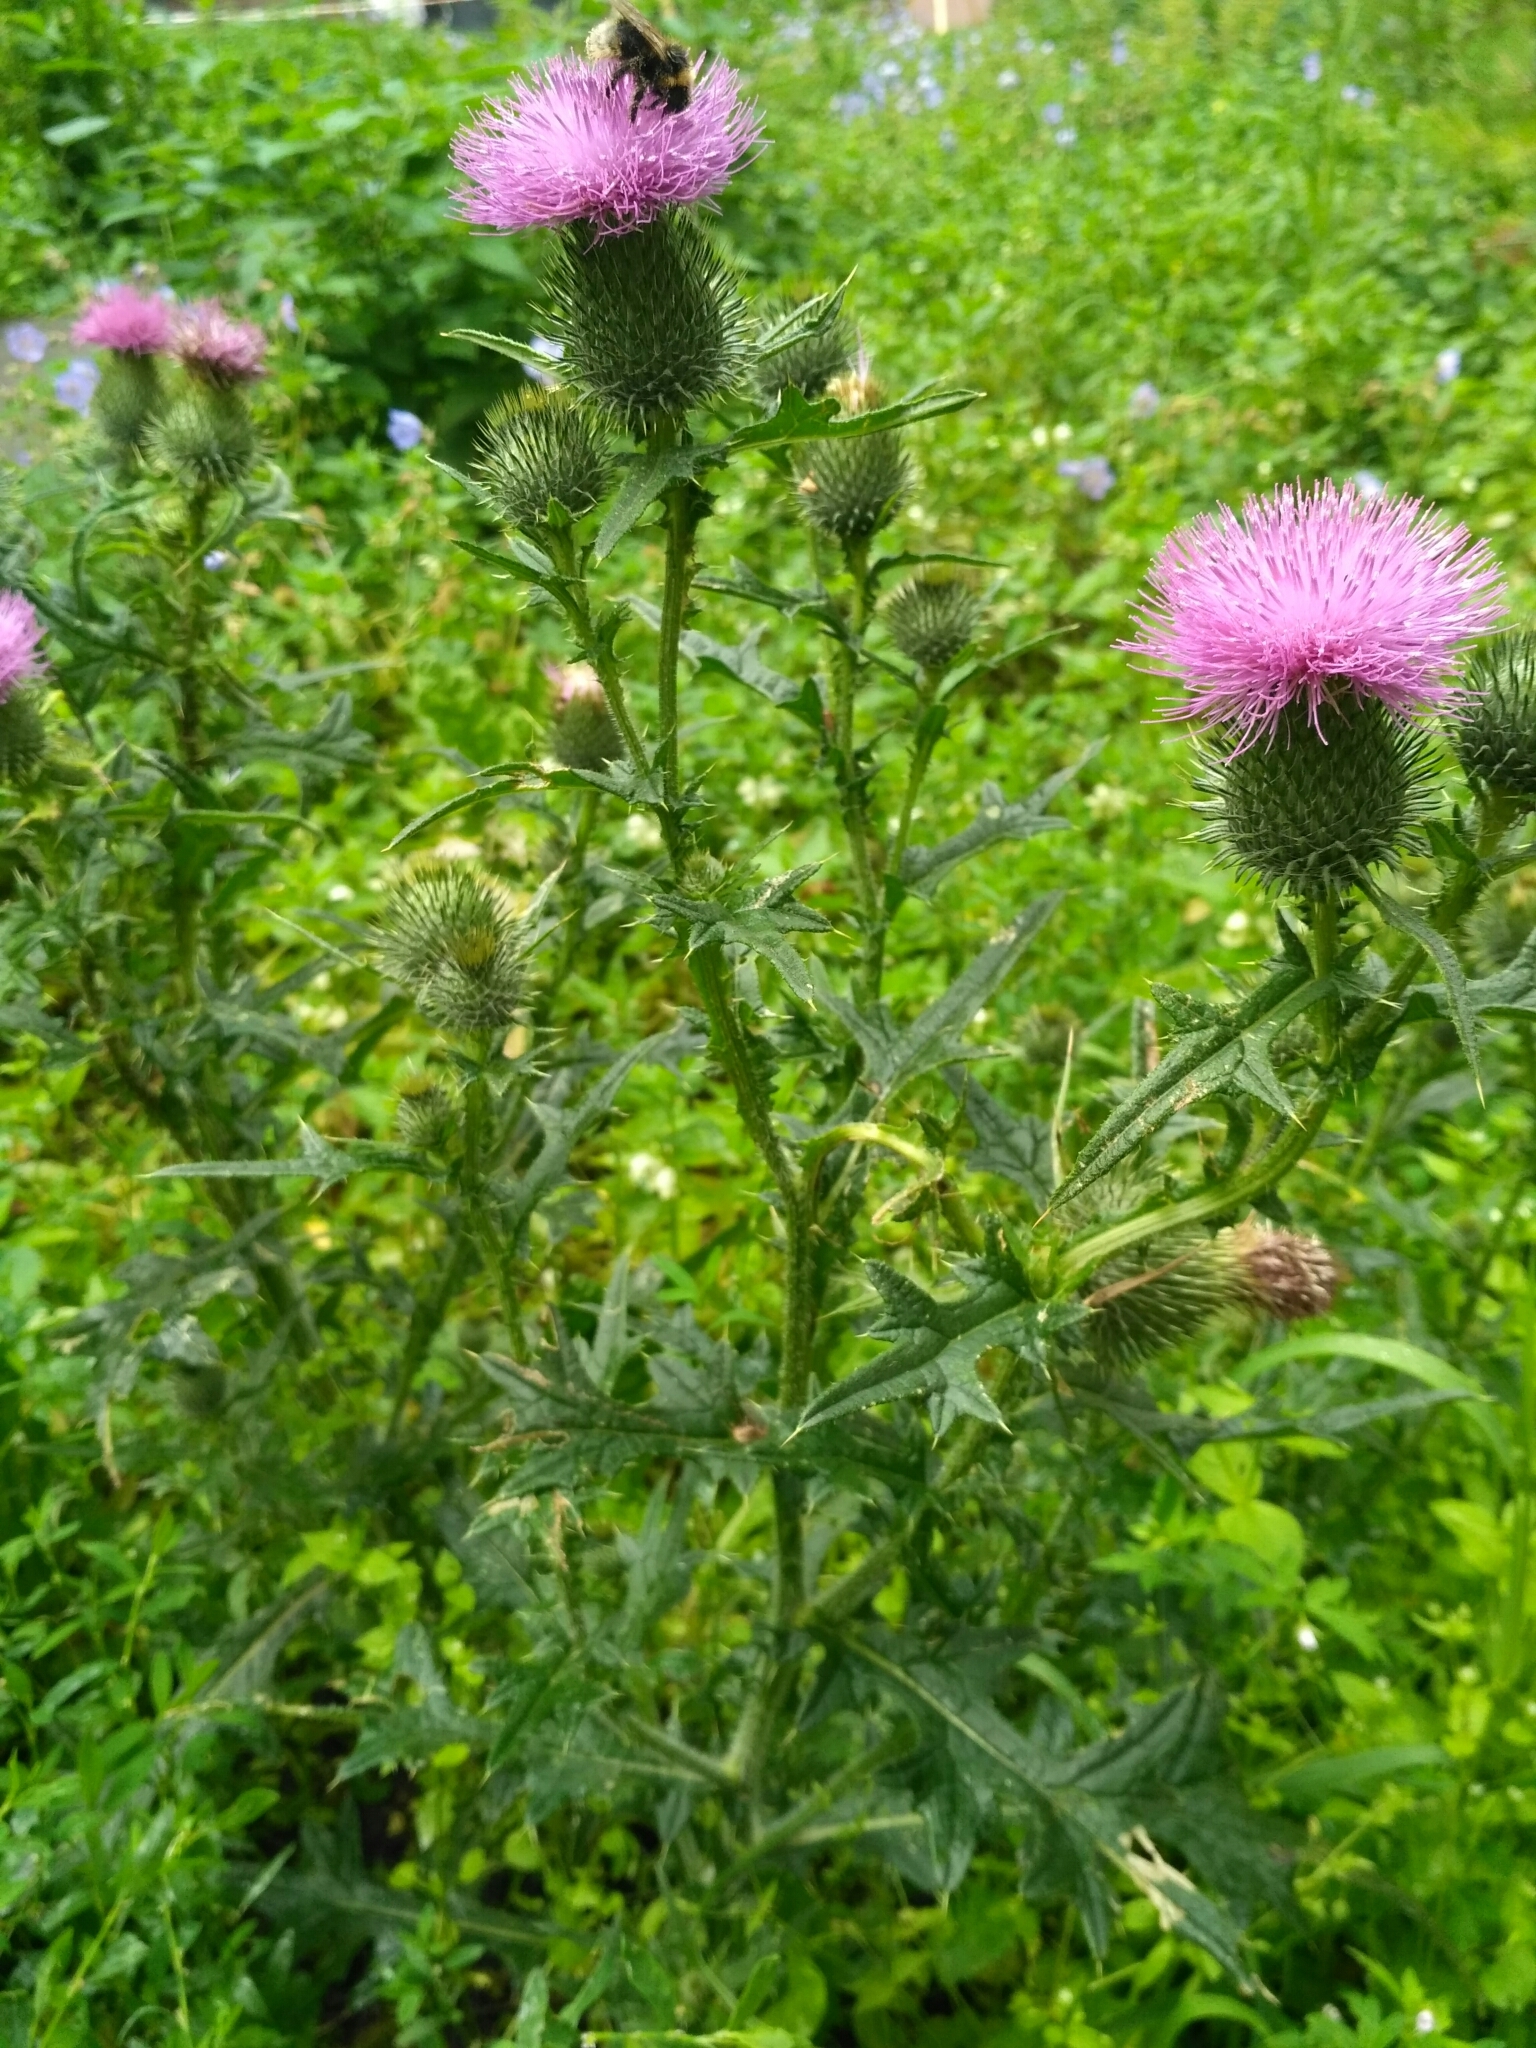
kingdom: Plantae
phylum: Tracheophyta
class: Magnoliopsida
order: Asterales
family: Asteraceae
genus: Cirsium
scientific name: Cirsium vulgare
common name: Bull thistle
